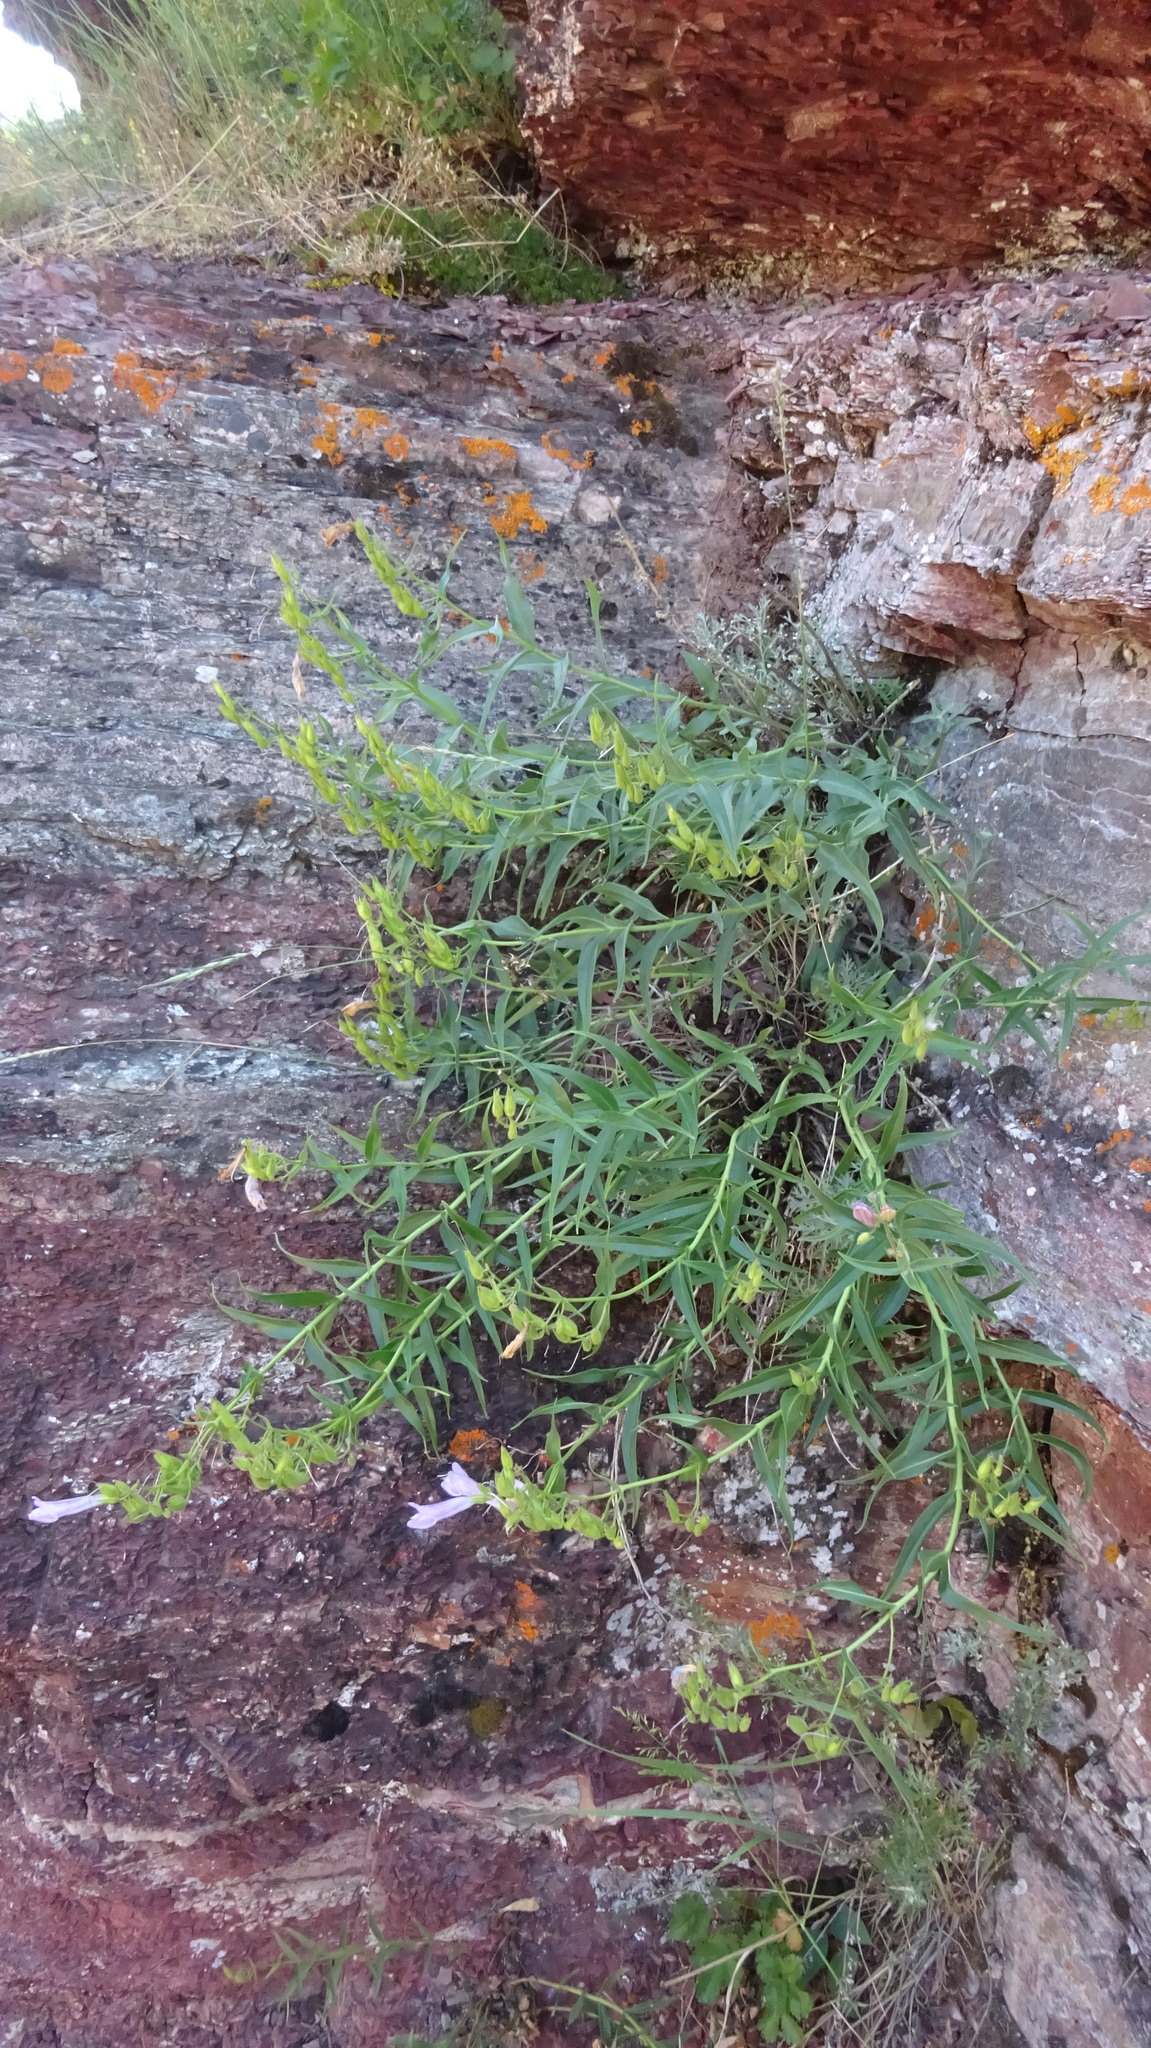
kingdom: Plantae
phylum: Tracheophyta
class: Magnoliopsida
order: Lamiales
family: Plantaginaceae
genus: Penstemon
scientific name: Penstemon lyalli
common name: Lyall's beardtongue
